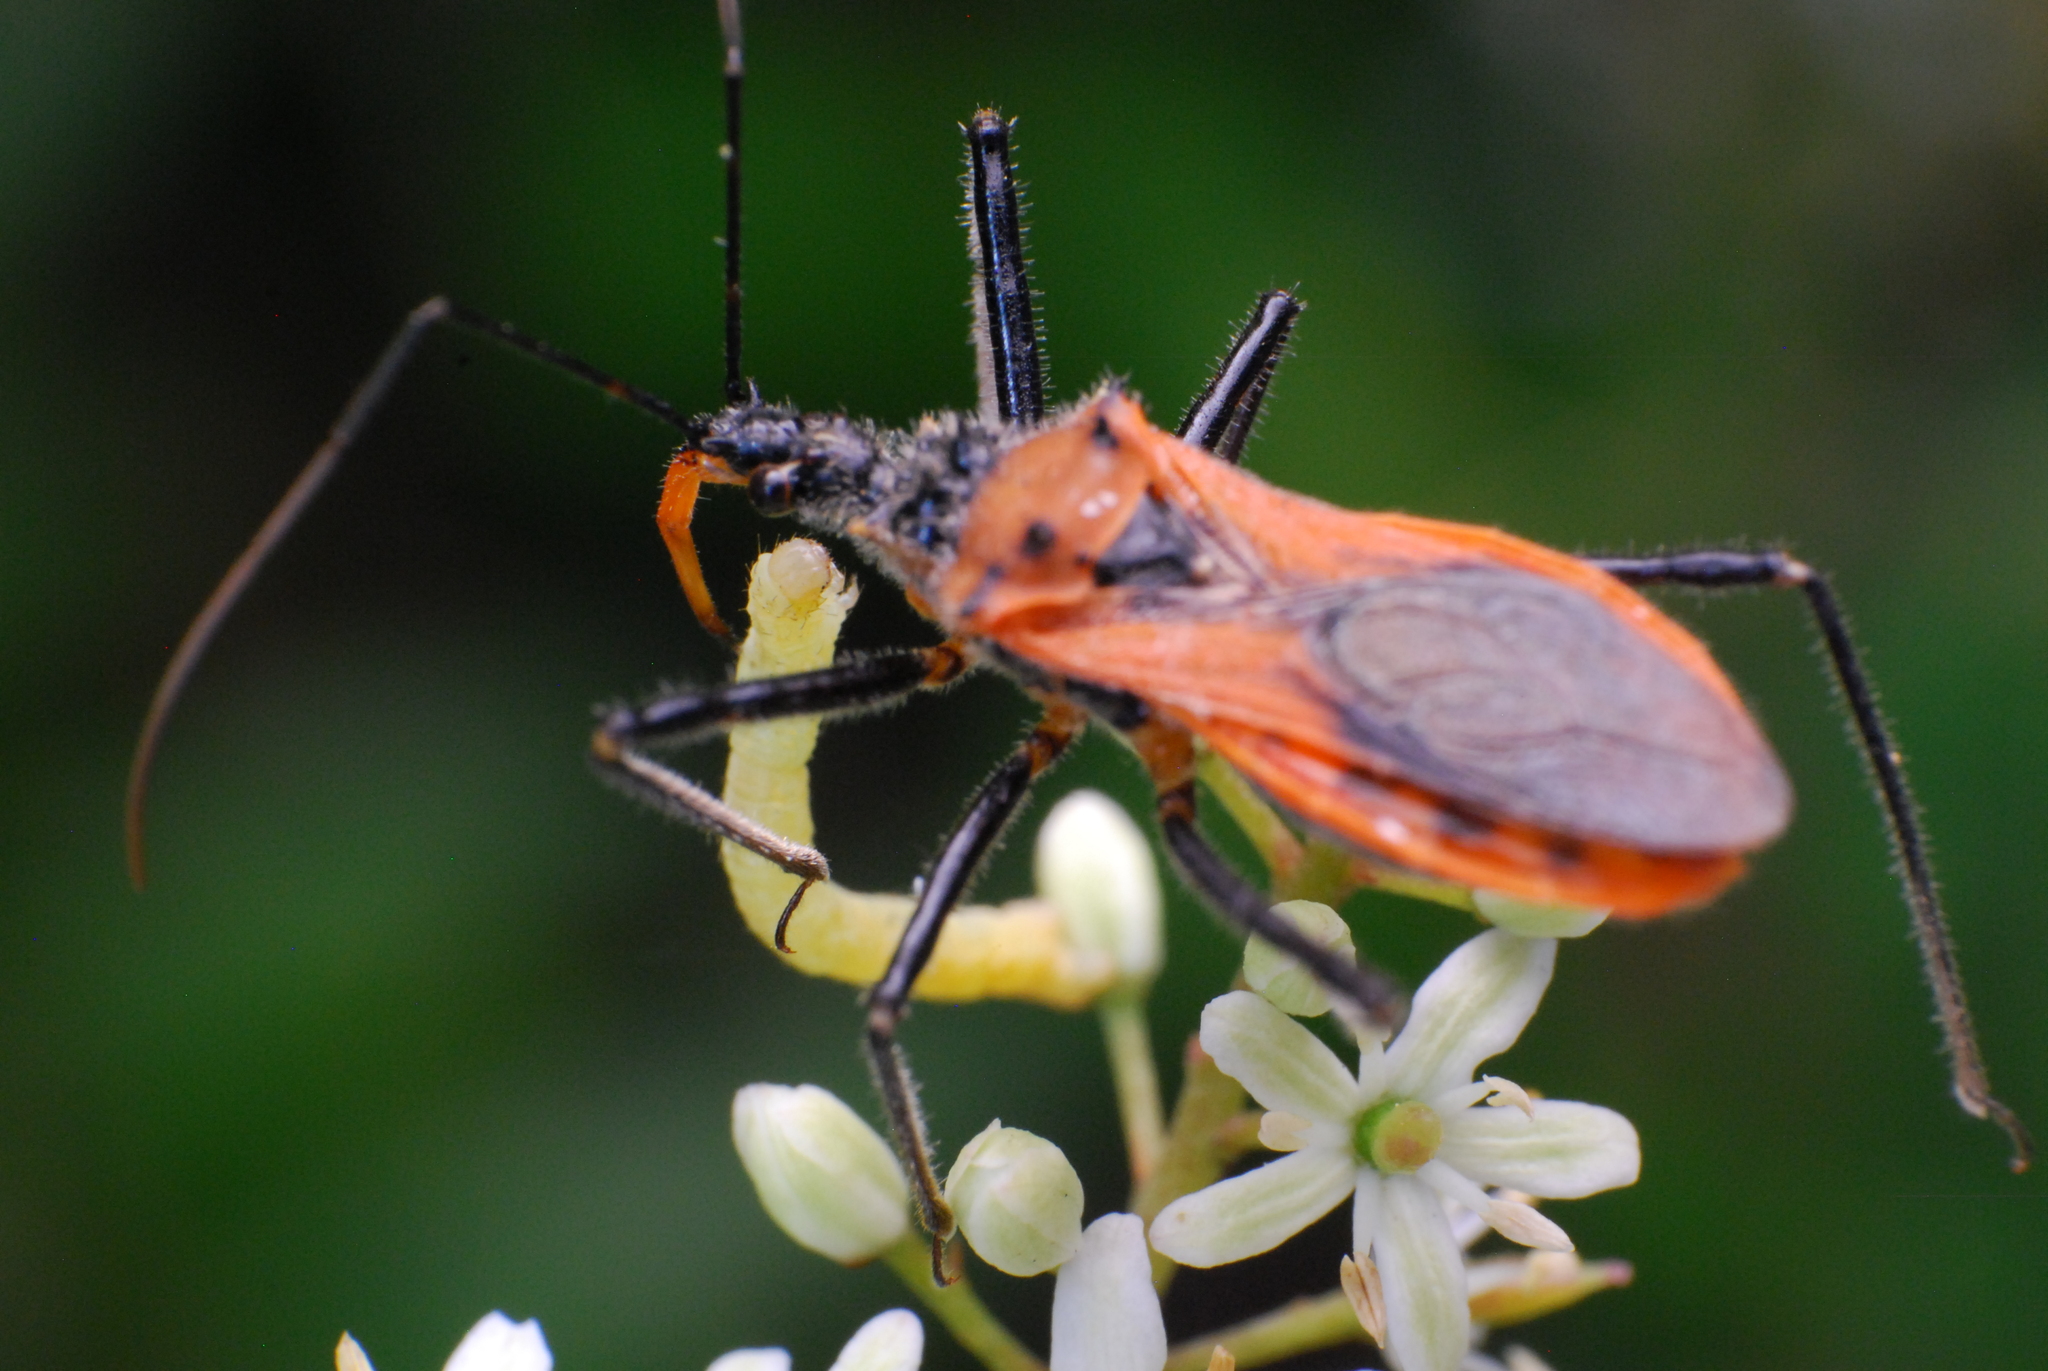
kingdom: Animalia
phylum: Arthropoda
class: Insecta
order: Hemiptera
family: Reduviidae
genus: Gminatus
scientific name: Gminatus australis
